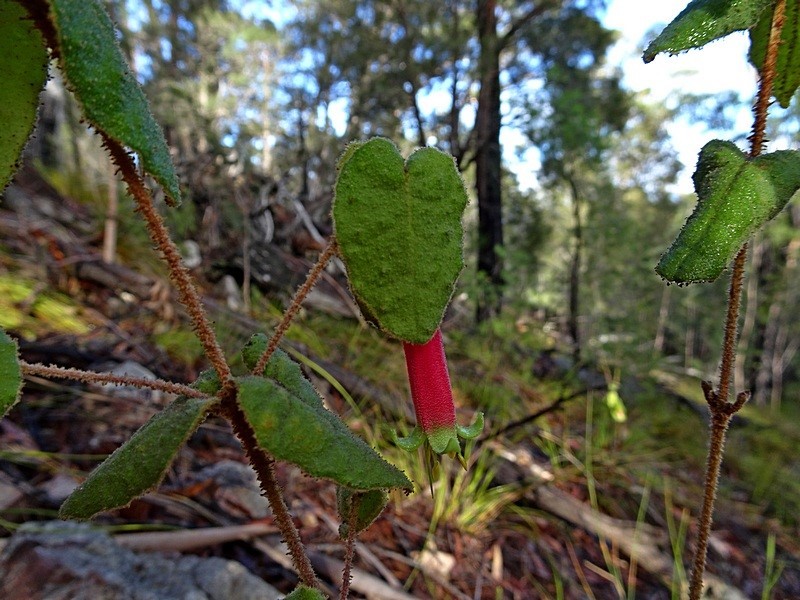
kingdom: Plantae
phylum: Tracheophyta
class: Magnoliopsida
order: Sapindales
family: Rutaceae
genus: Correa
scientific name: Correa reflexa
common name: Common correa
